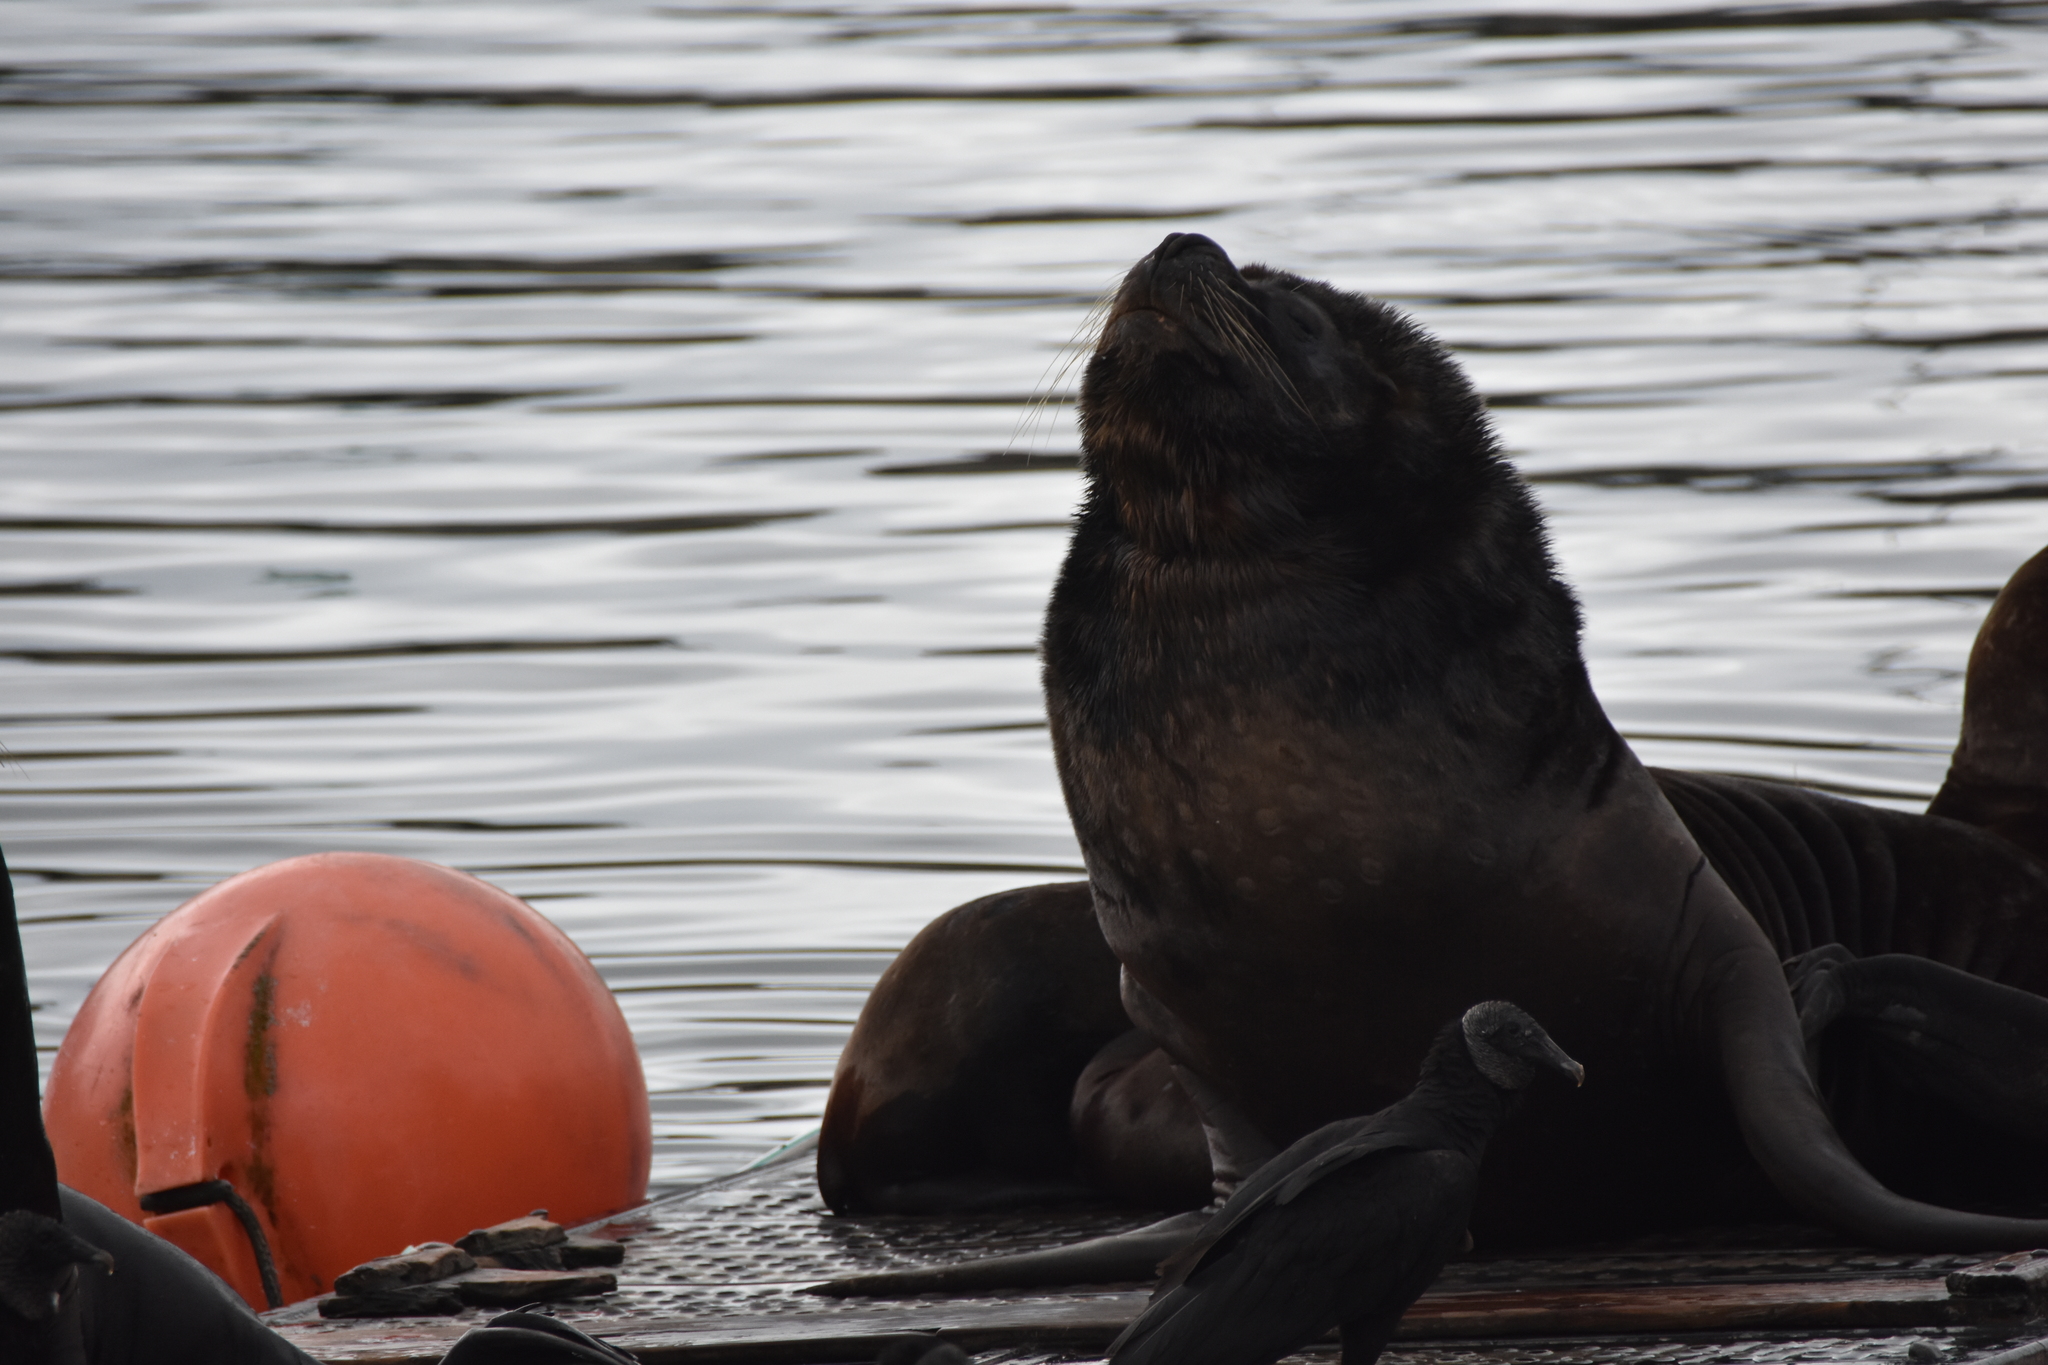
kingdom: Animalia
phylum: Chordata
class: Mammalia
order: Carnivora
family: Otariidae
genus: Otaria
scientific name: Otaria byronia
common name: South american sea lion
